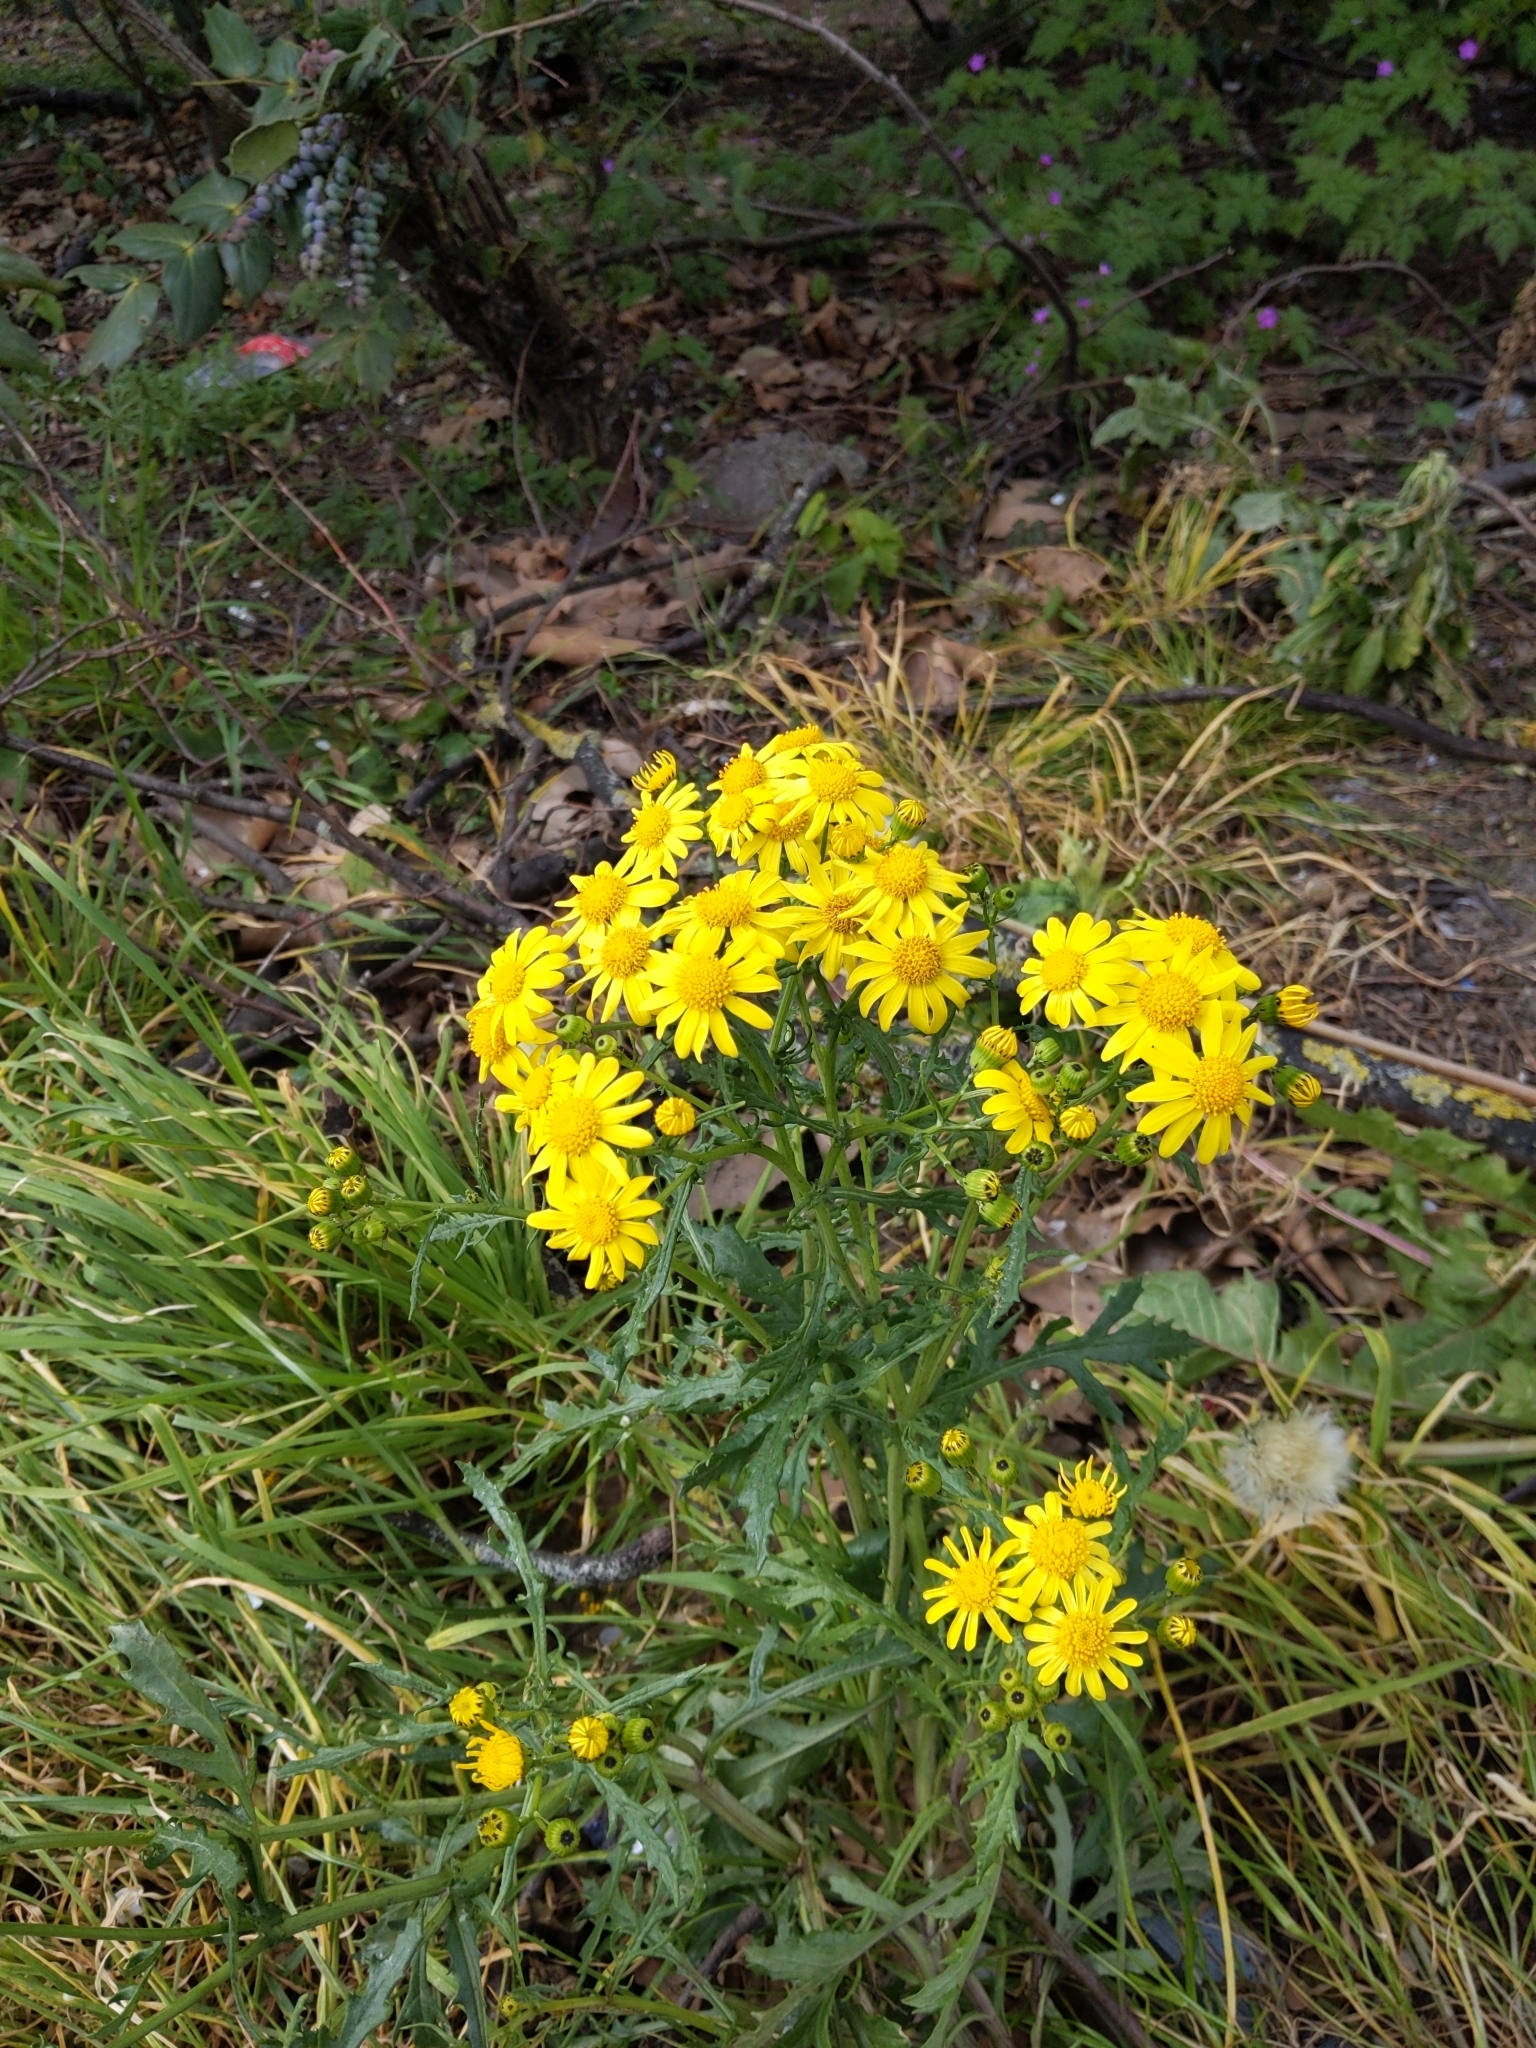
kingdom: Plantae
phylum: Tracheophyta
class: Magnoliopsida
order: Asterales
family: Asteraceae
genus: Senecio
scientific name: Senecio squalidus
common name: Oxford ragwort
